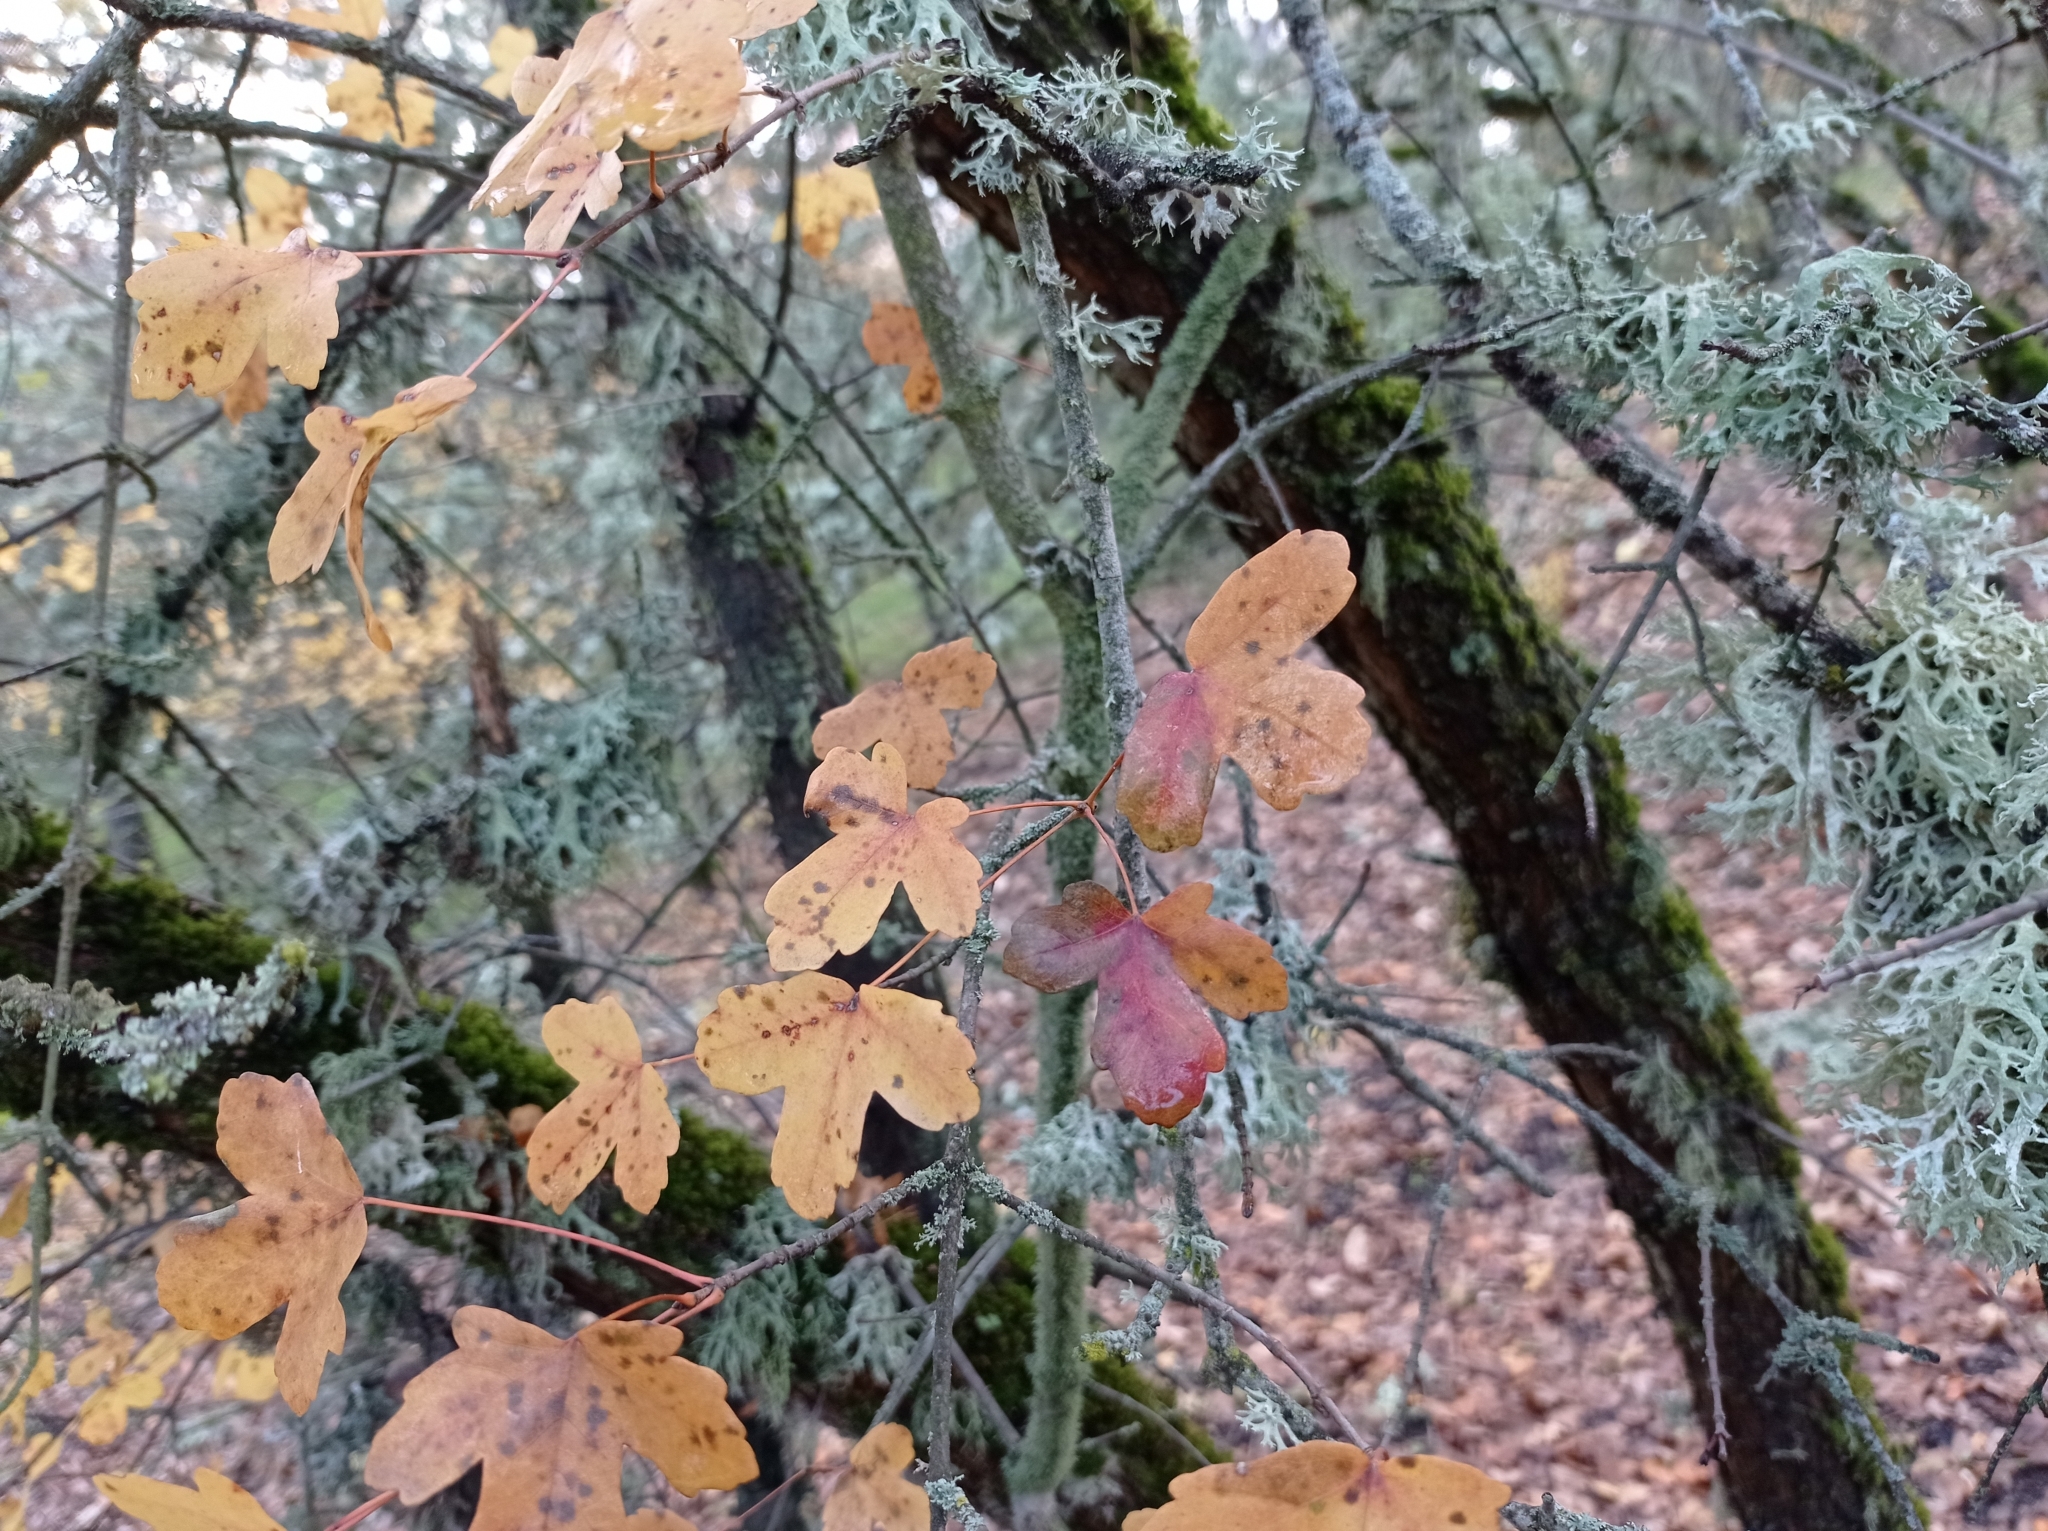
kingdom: Plantae
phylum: Tracheophyta
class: Magnoliopsida
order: Sapindales
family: Sapindaceae
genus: Acer
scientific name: Acer monspessulanum
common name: Montpellier maple
